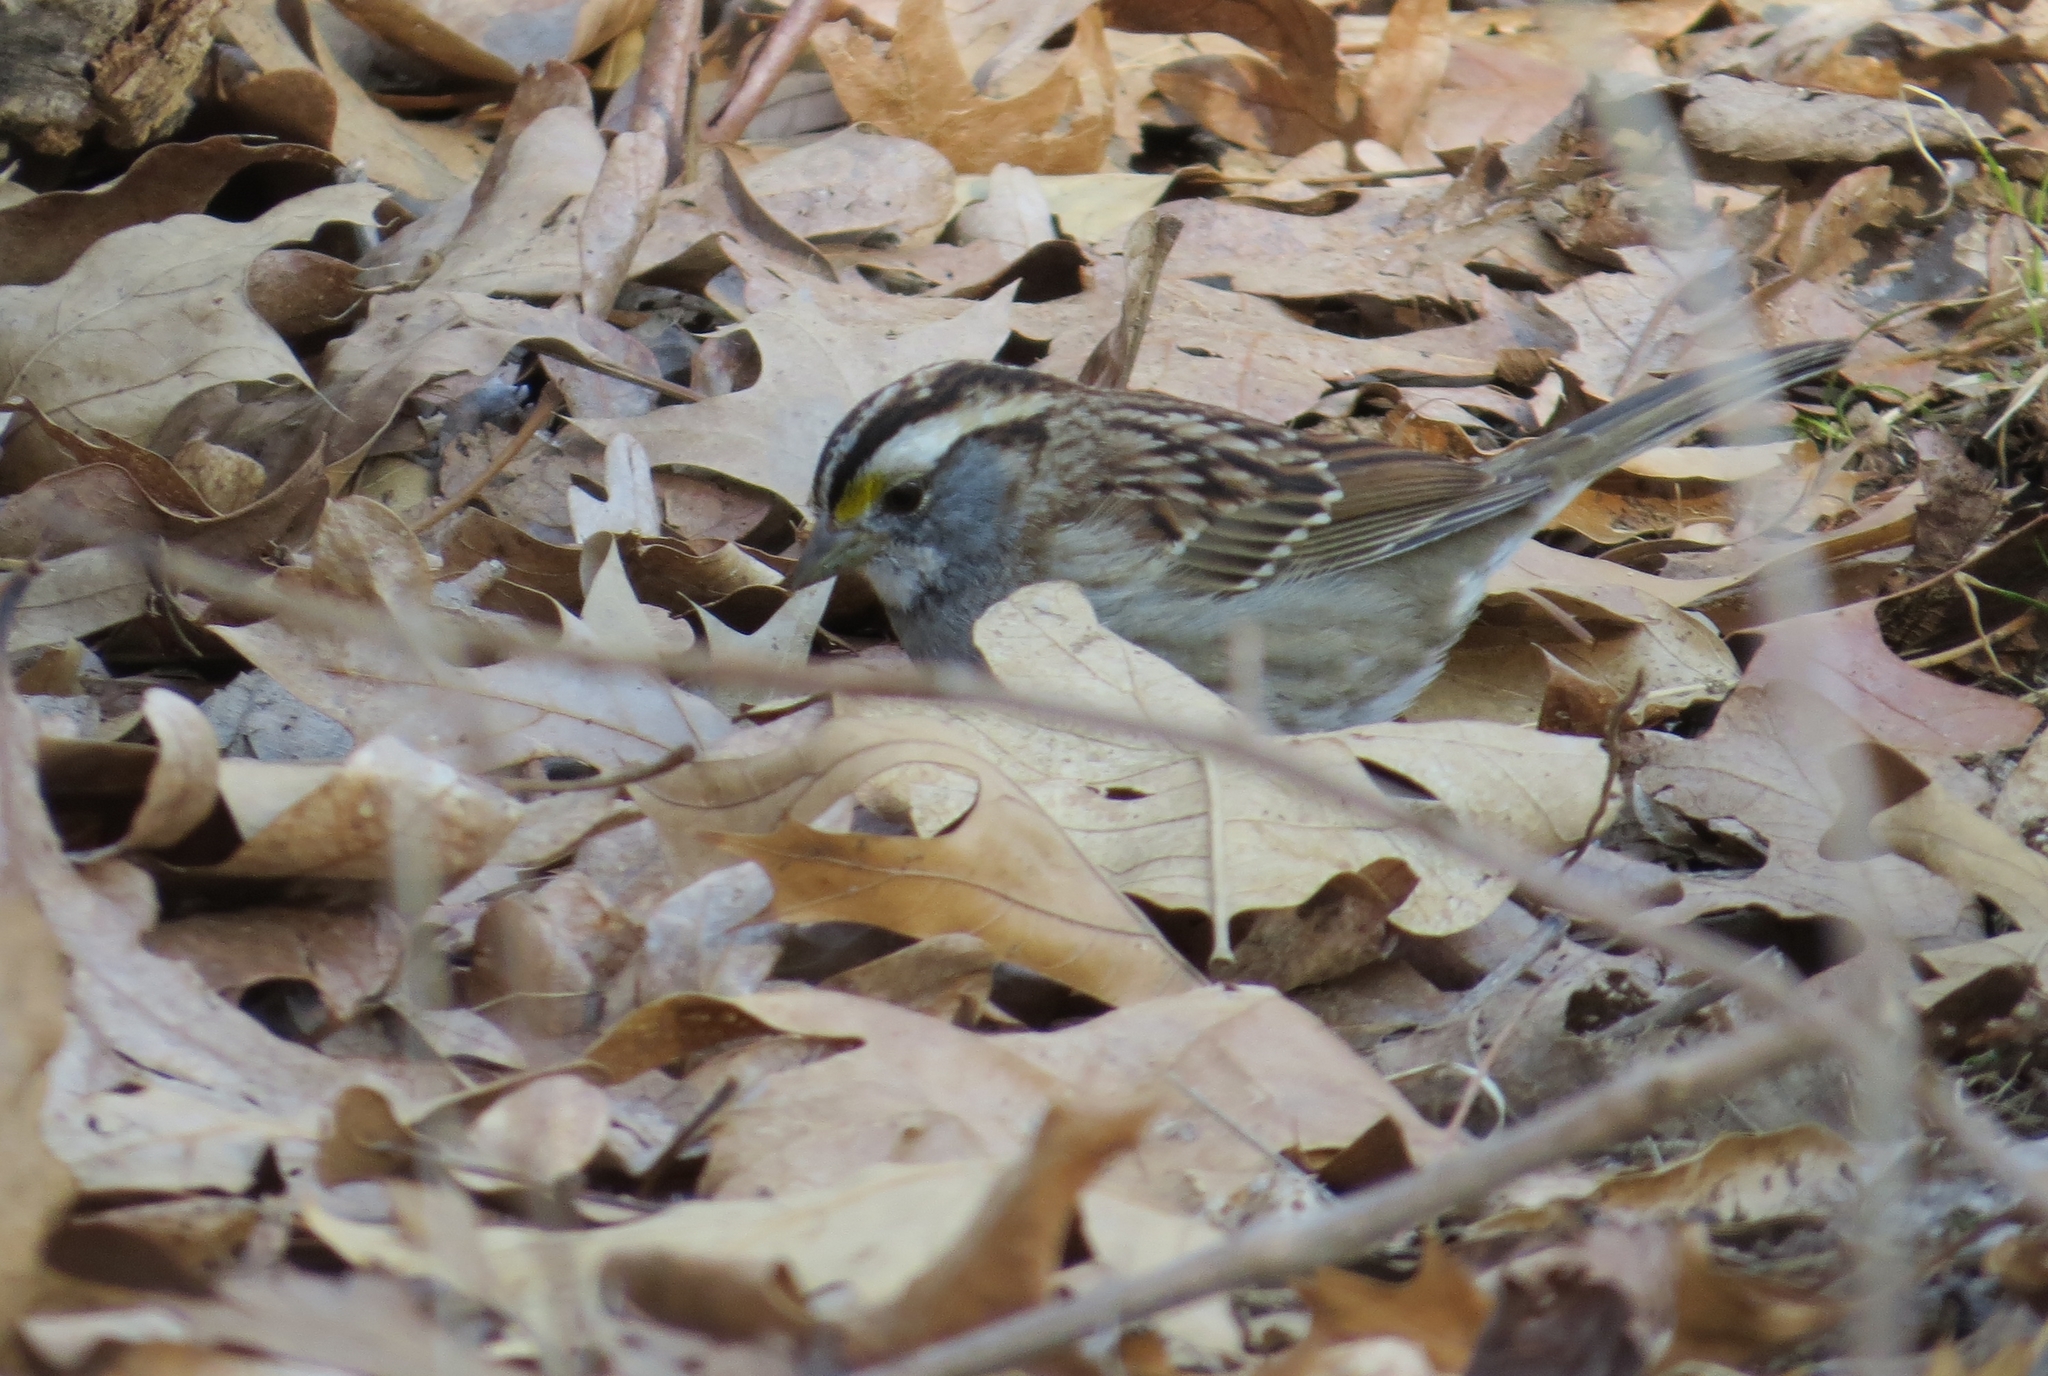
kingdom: Animalia
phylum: Chordata
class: Aves
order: Passeriformes
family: Passerellidae
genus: Zonotrichia
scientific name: Zonotrichia albicollis
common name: White-throated sparrow
